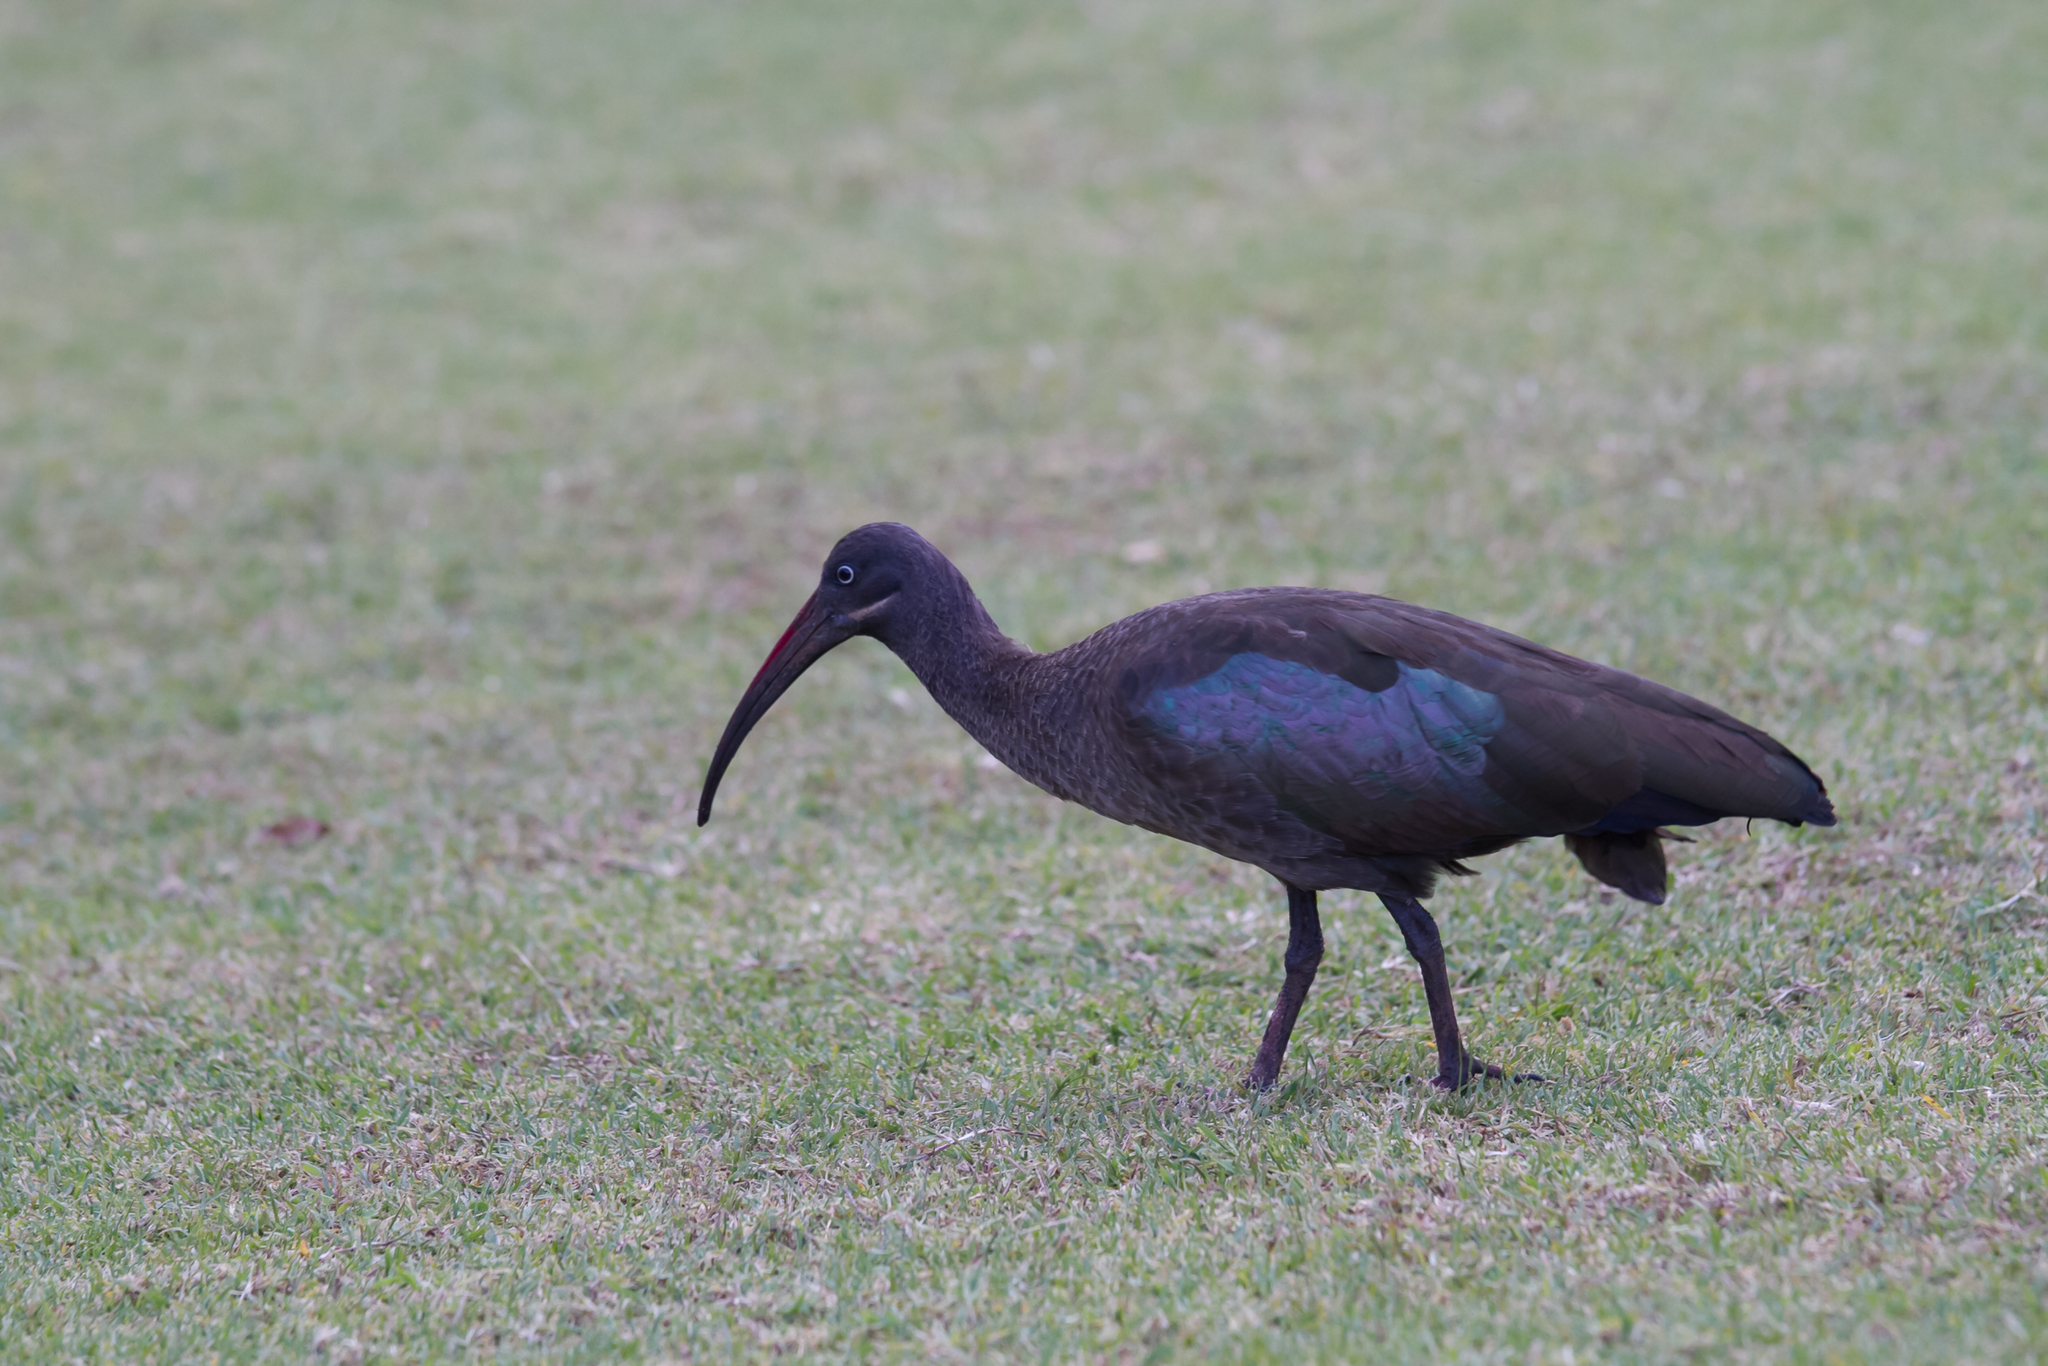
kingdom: Animalia
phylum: Chordata
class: Aves
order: Pelecaniformes
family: Threskiornithidae
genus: Bostrychia
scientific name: Bostrychia hagedash
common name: Hadada ibis
